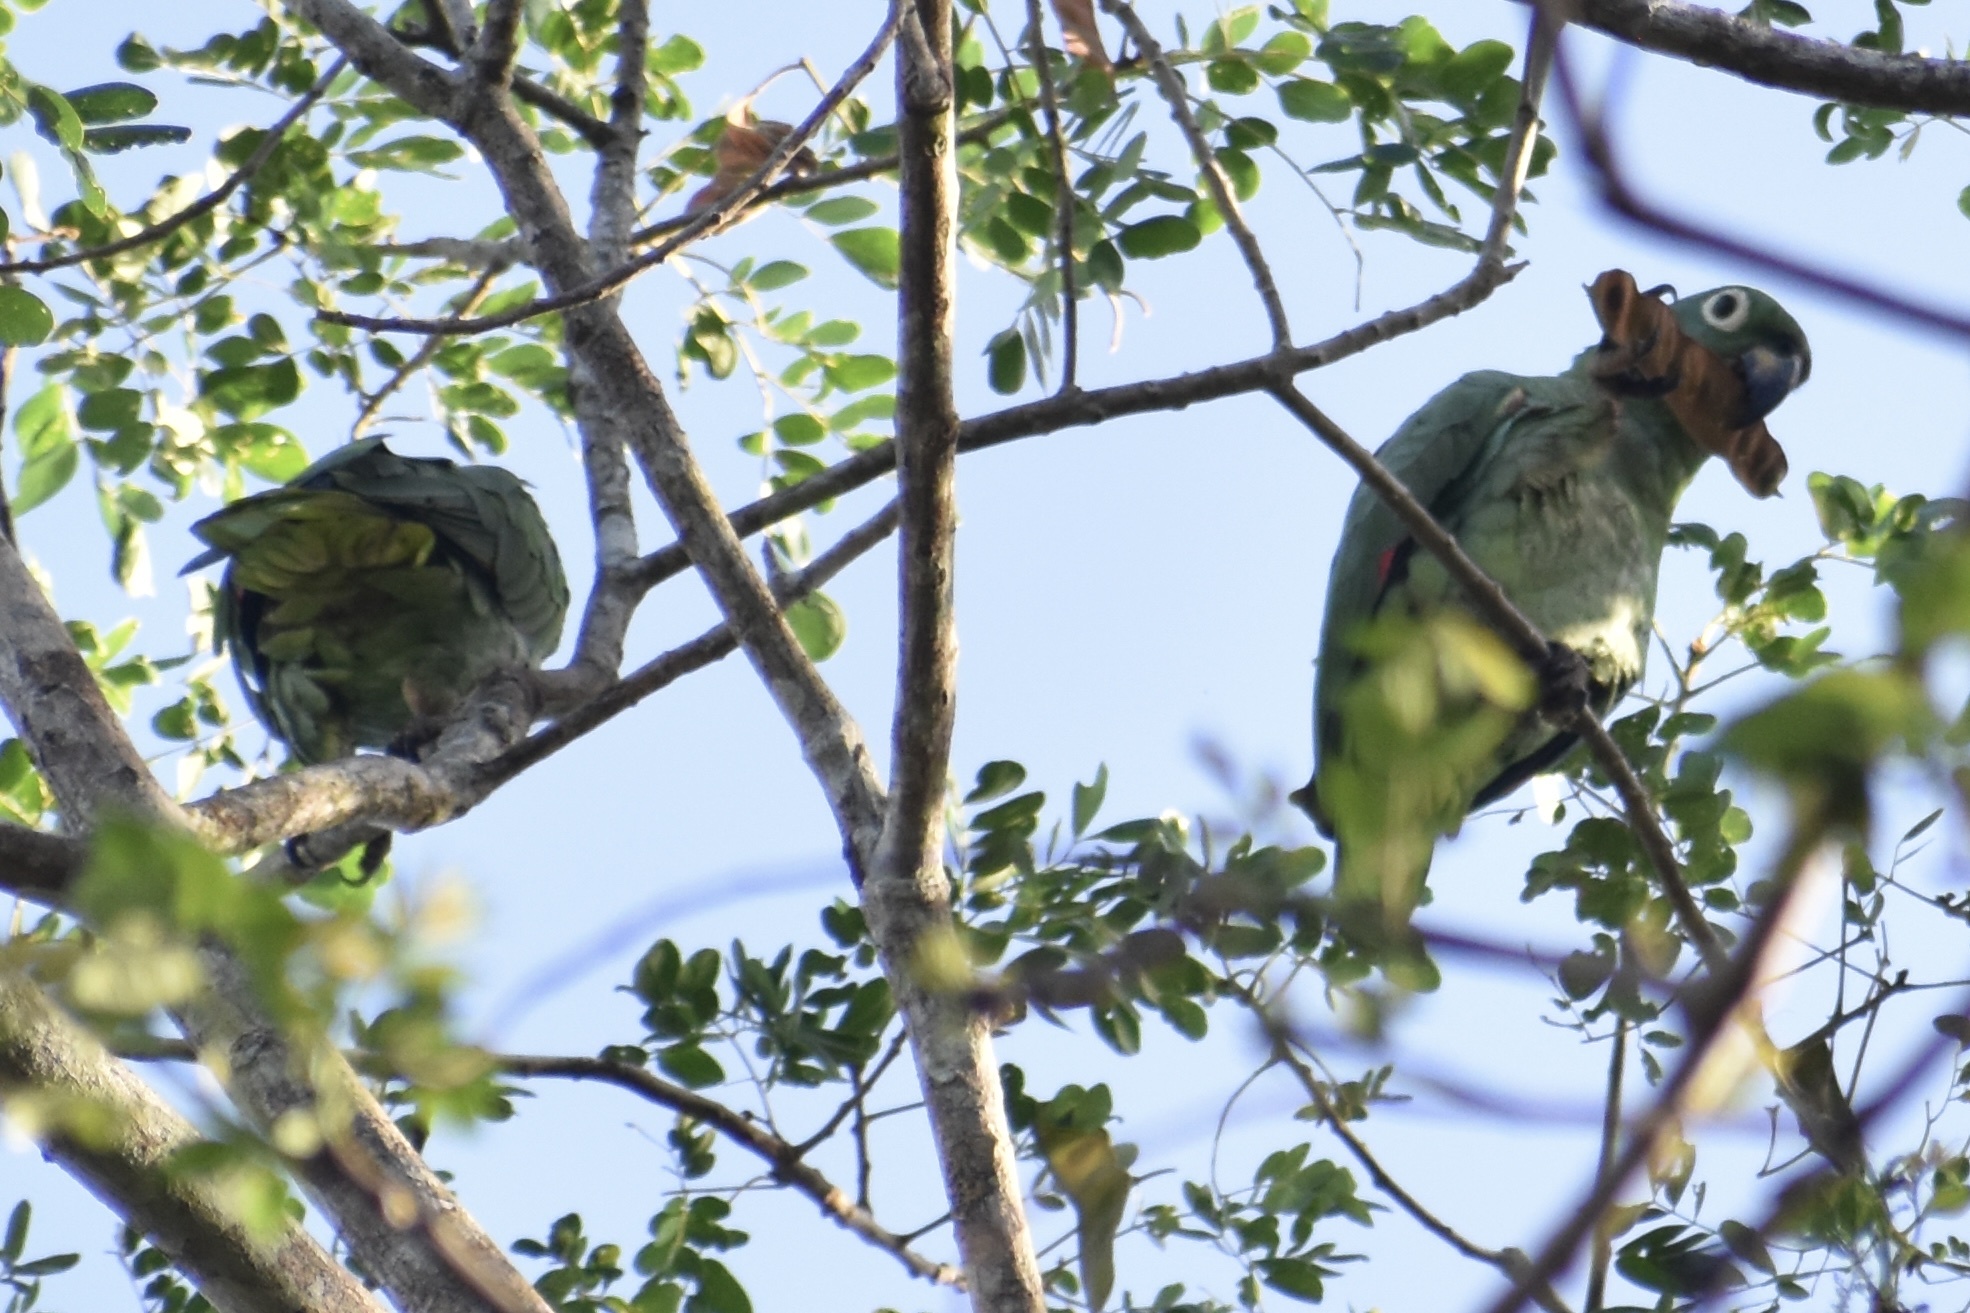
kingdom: Animalia
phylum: Chordata
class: Aves
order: Psittaciformes
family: Psittacidae
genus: Amazona
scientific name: Amazona farinosa
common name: Mealy parrot
